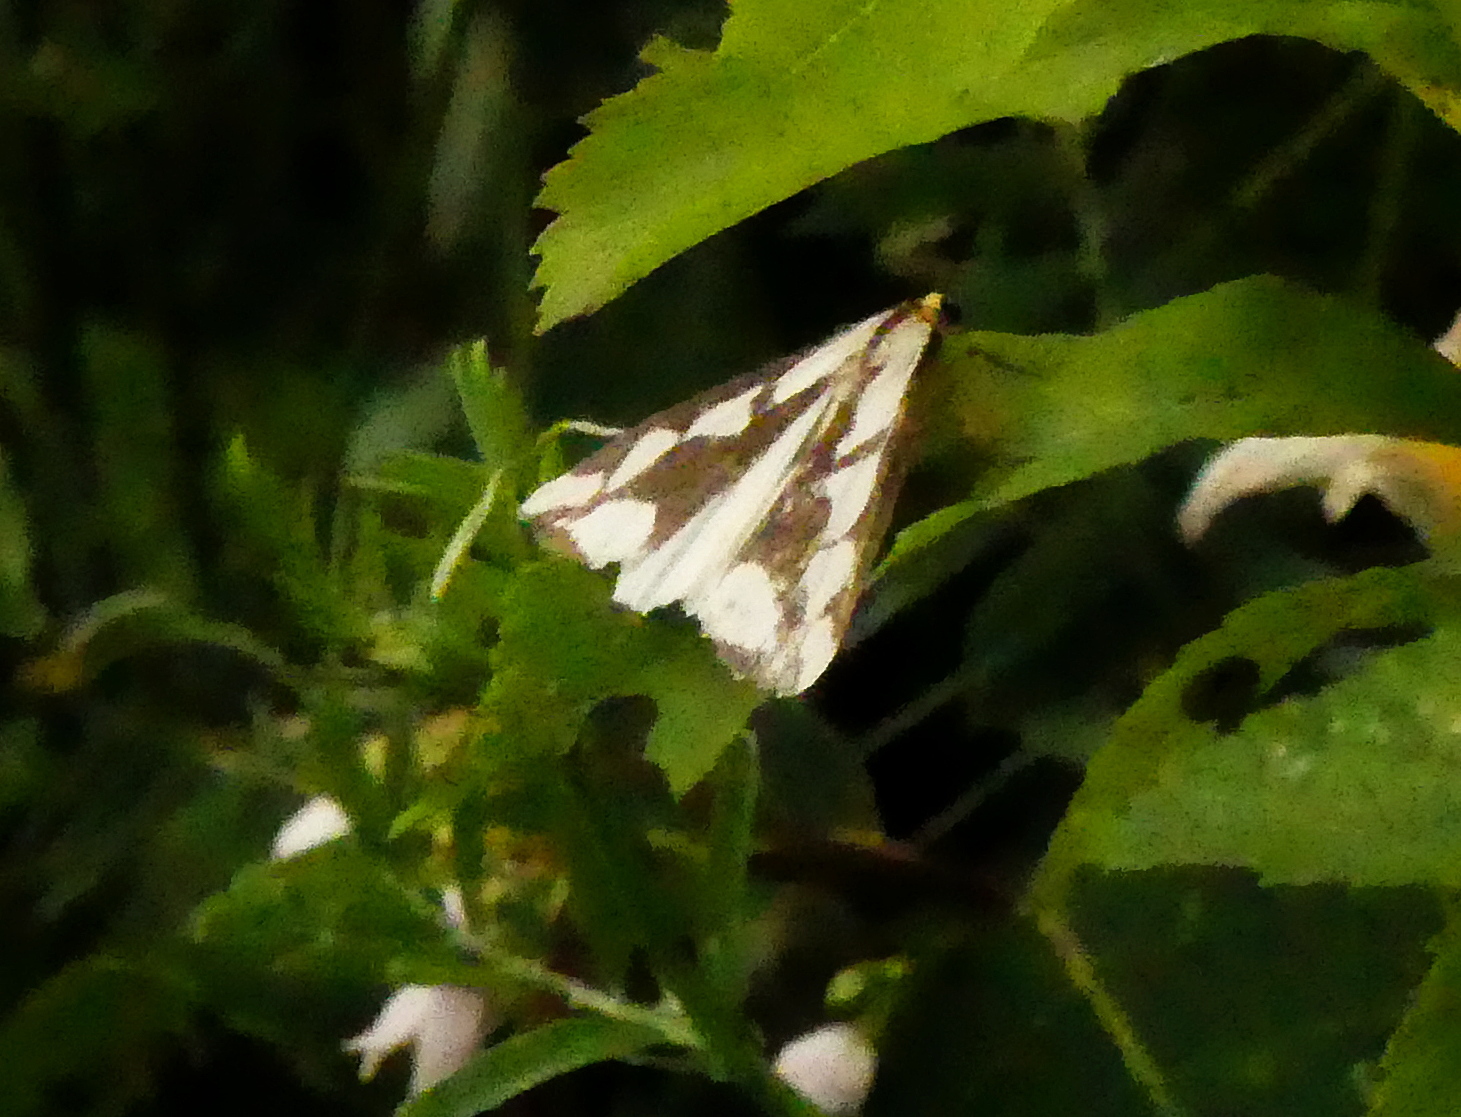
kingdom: Animalia
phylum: Arthropoda
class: Insecta
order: Lepidoptera
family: Erebidae
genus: Haploa
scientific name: Haploa confusa
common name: Confused haploa moth
